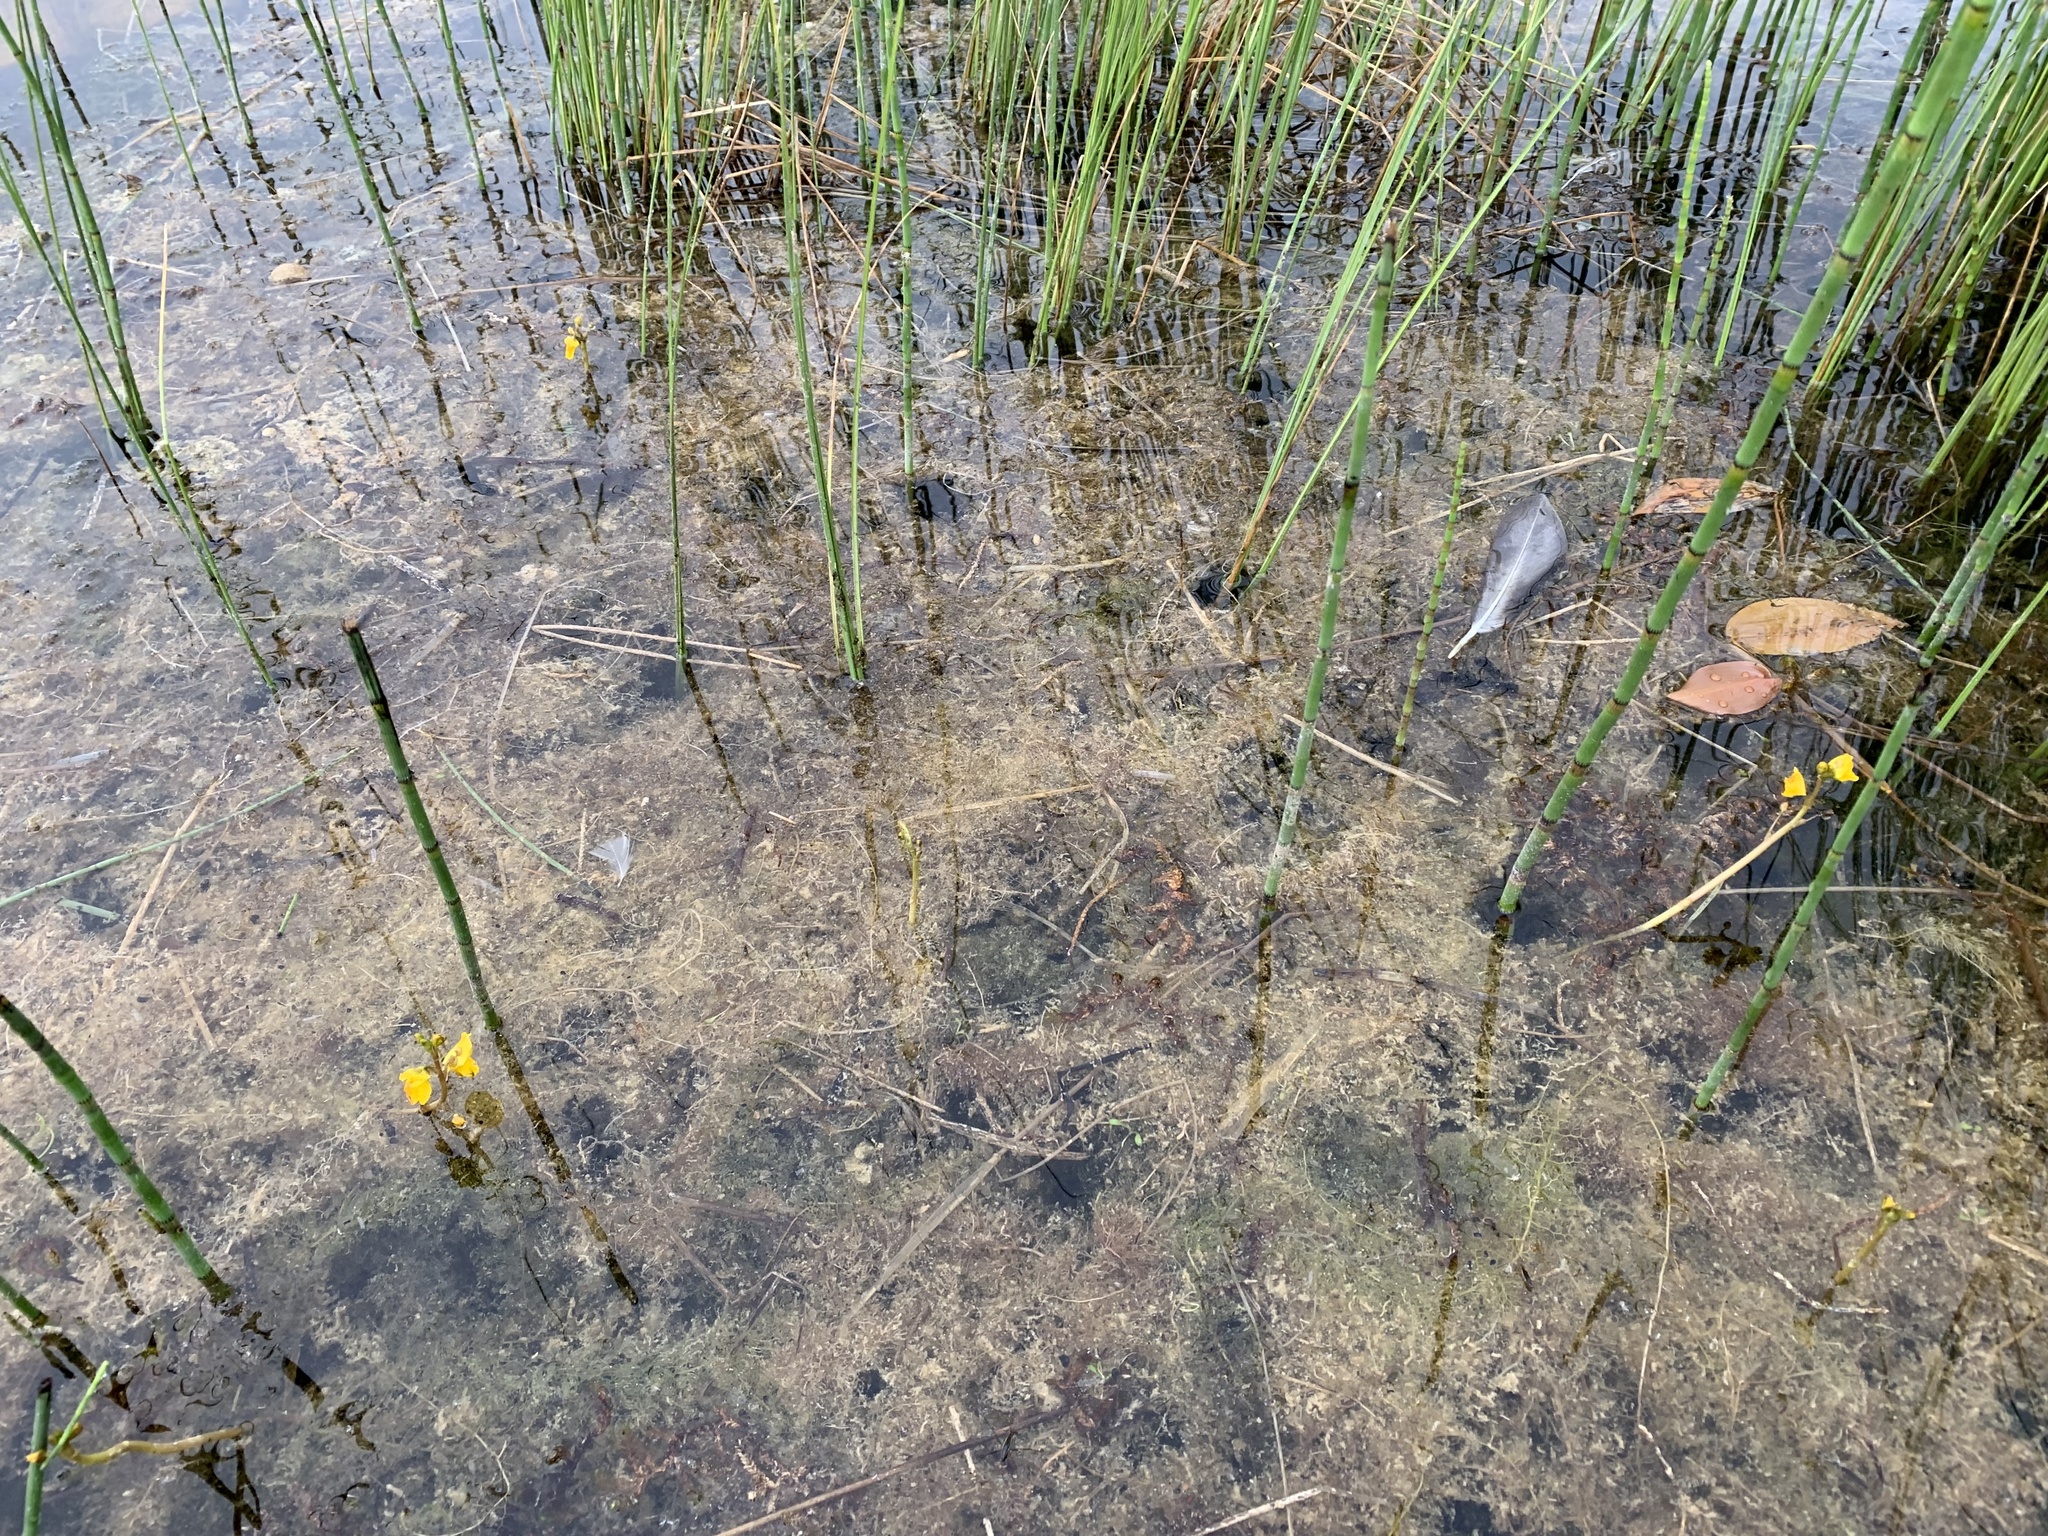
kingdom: Plantae
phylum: Tracheophyta
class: Magnoliopsida
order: Lamiales
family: Lentibulariaceae
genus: Utricularia
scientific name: Utricularia macrorhiza
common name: Common bladderwort
